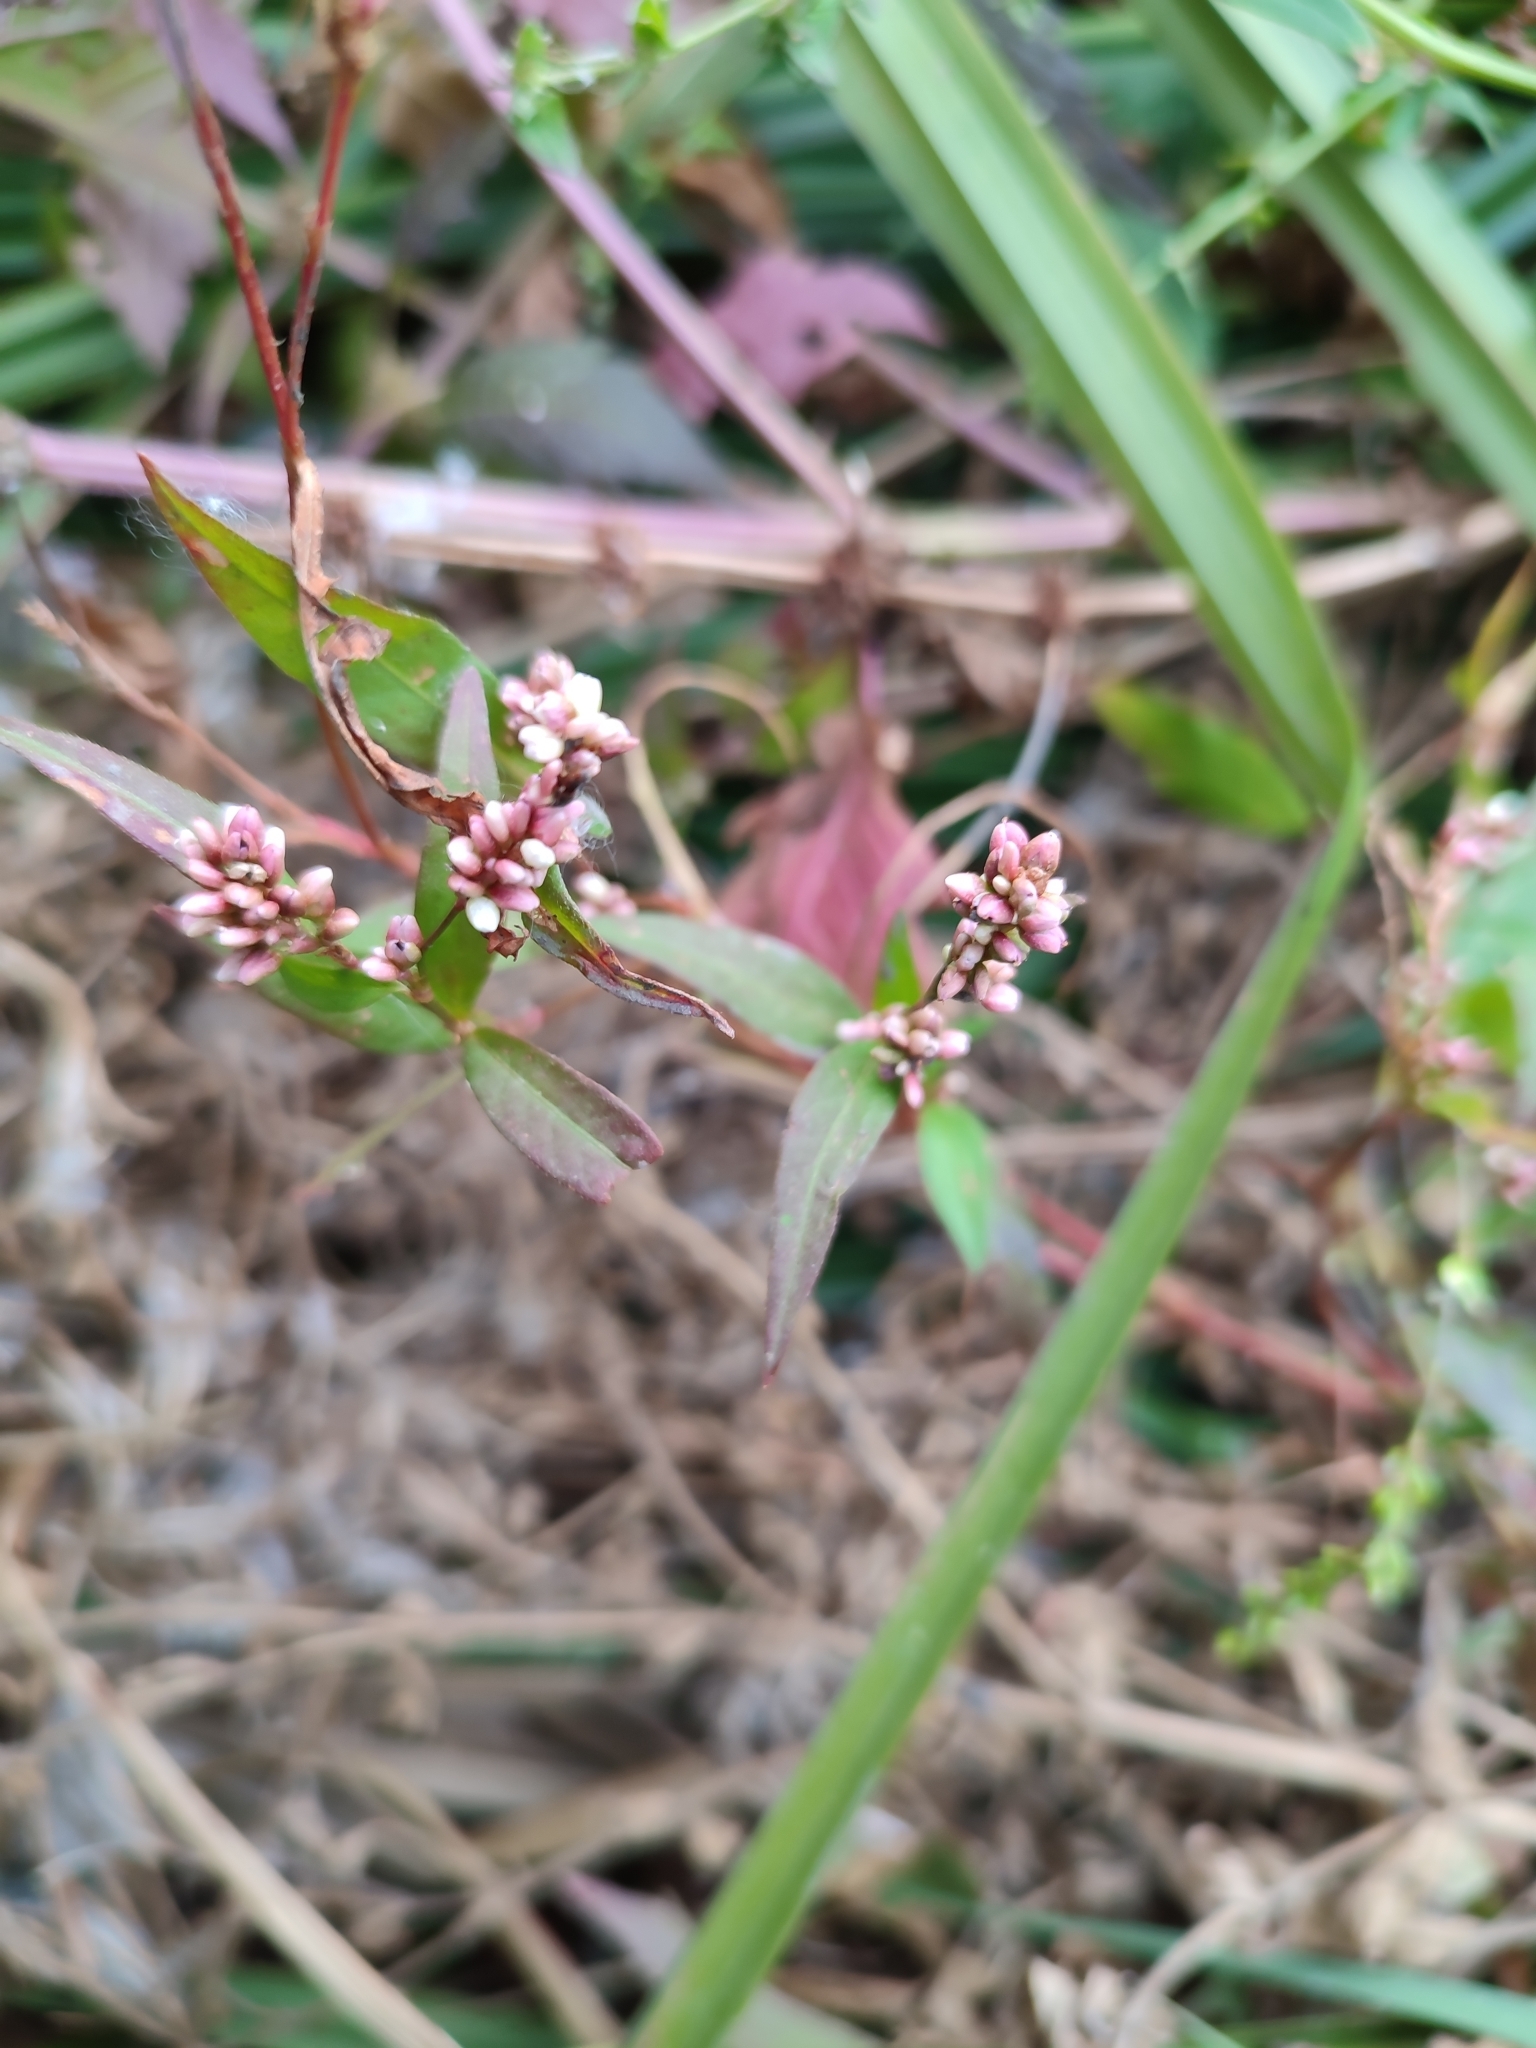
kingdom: Plantae
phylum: Tracheophyta
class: Magnoliopsida
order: Caryophyllales
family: Polygonaceae
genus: Persicaria
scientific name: Persicaria maculosa
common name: Redshank
